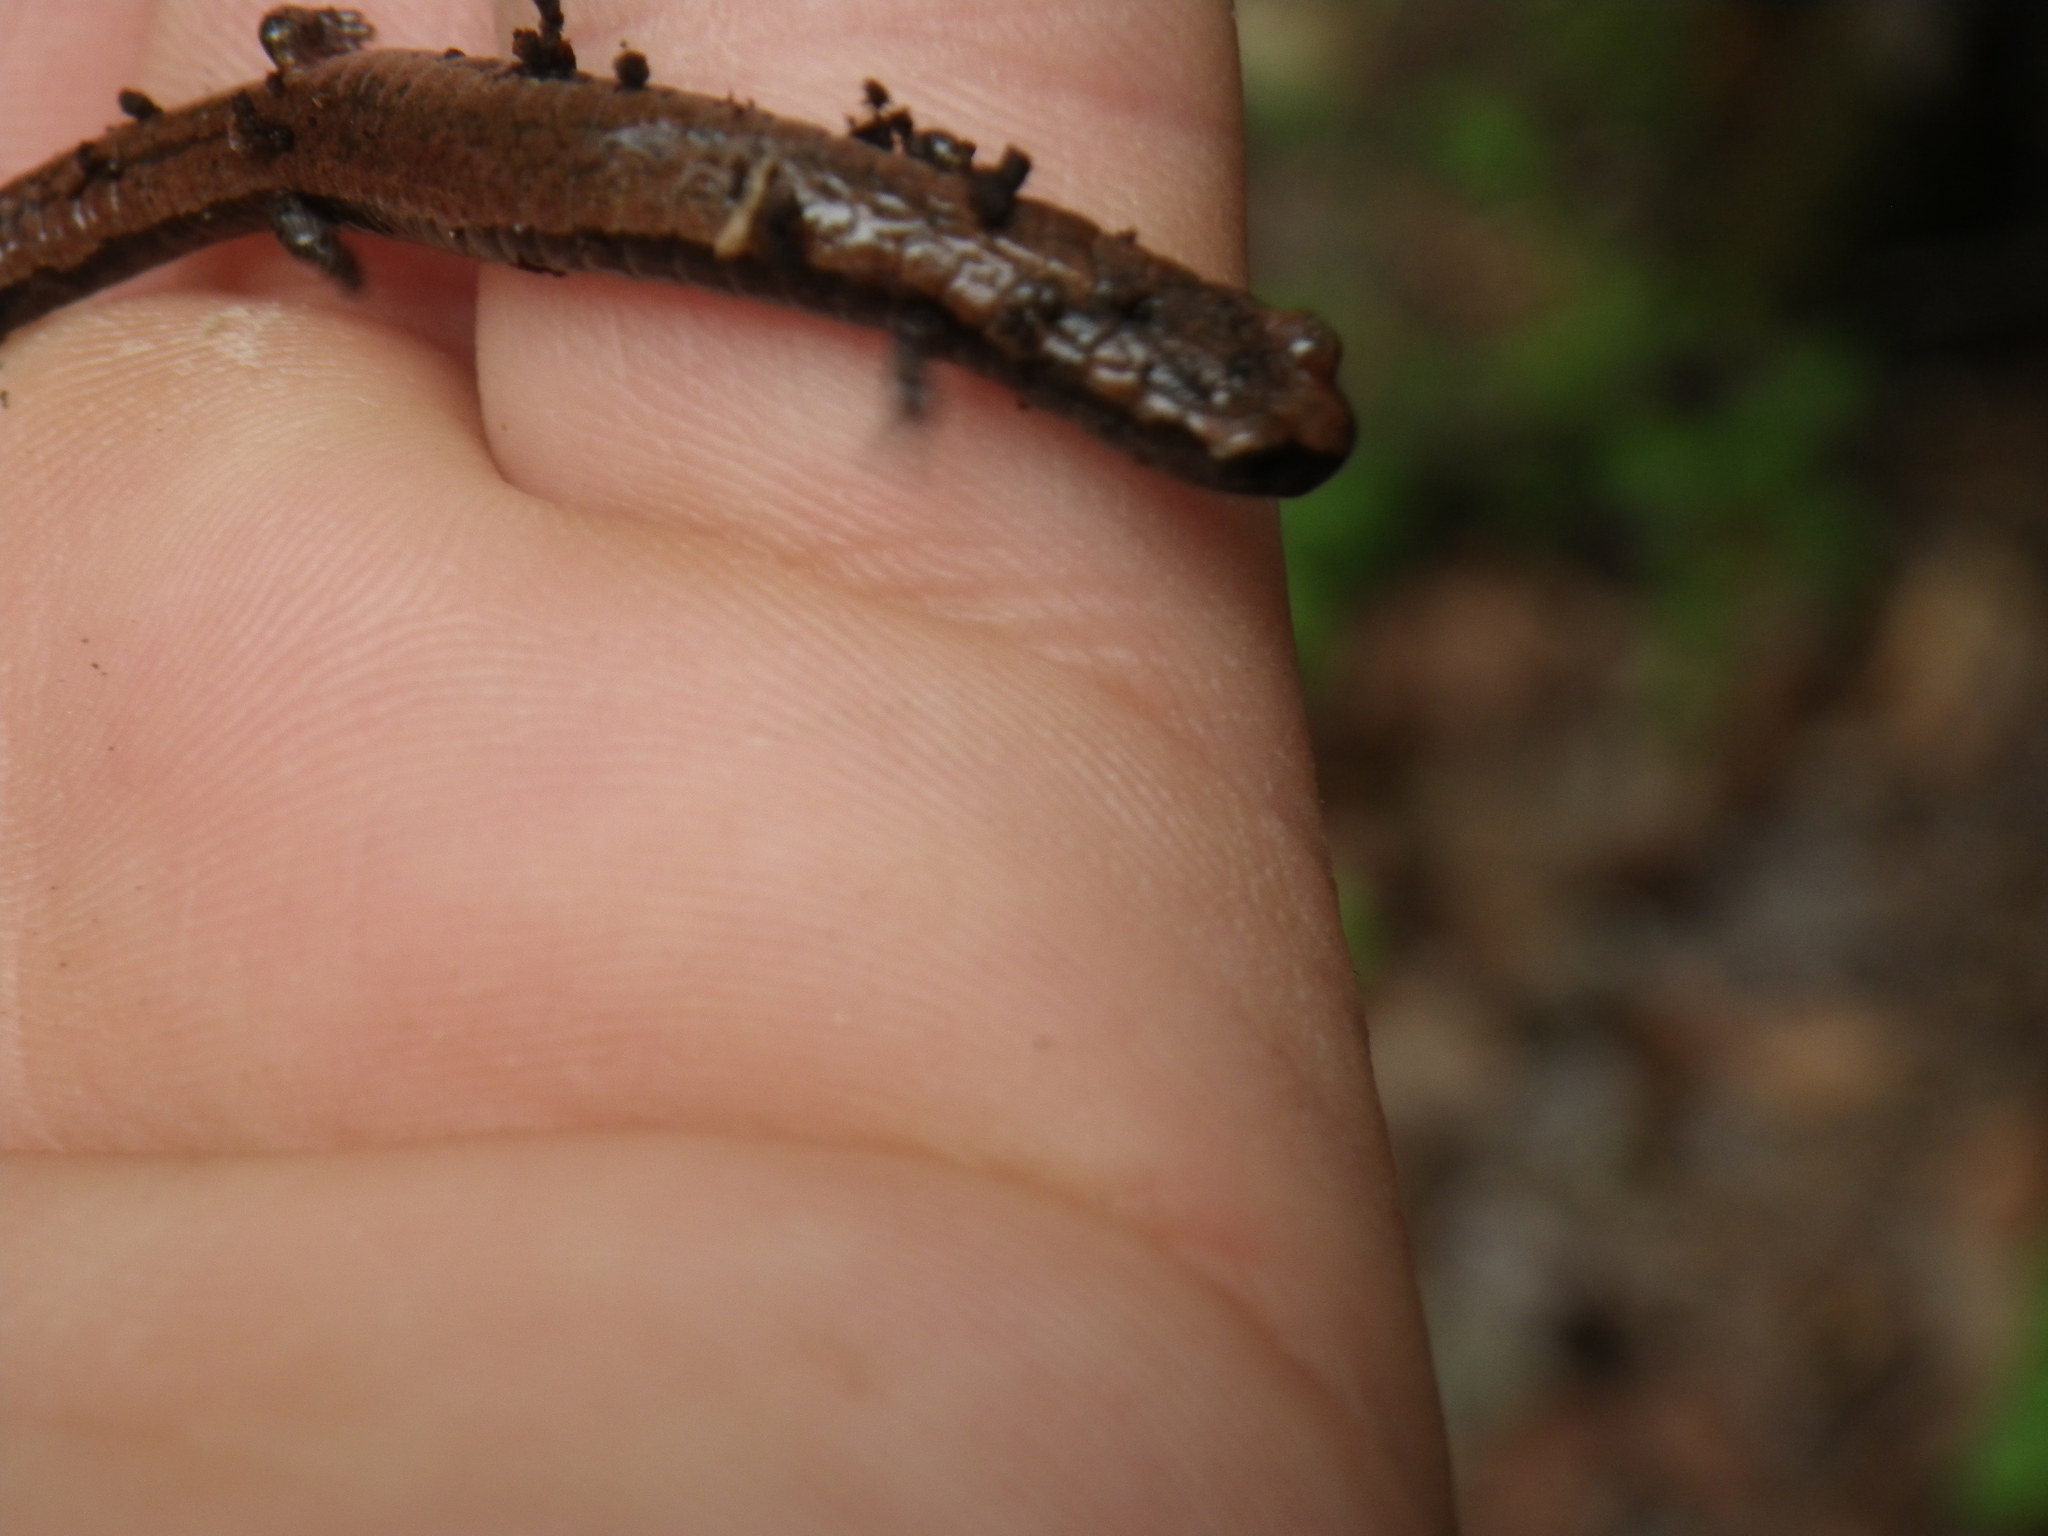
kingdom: Animalia
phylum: Chordata
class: Amphibia
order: Caudata
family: Plethodontidae
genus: Batrachoseps
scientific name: Batrachoseps attenuatus
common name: California slender salamander
